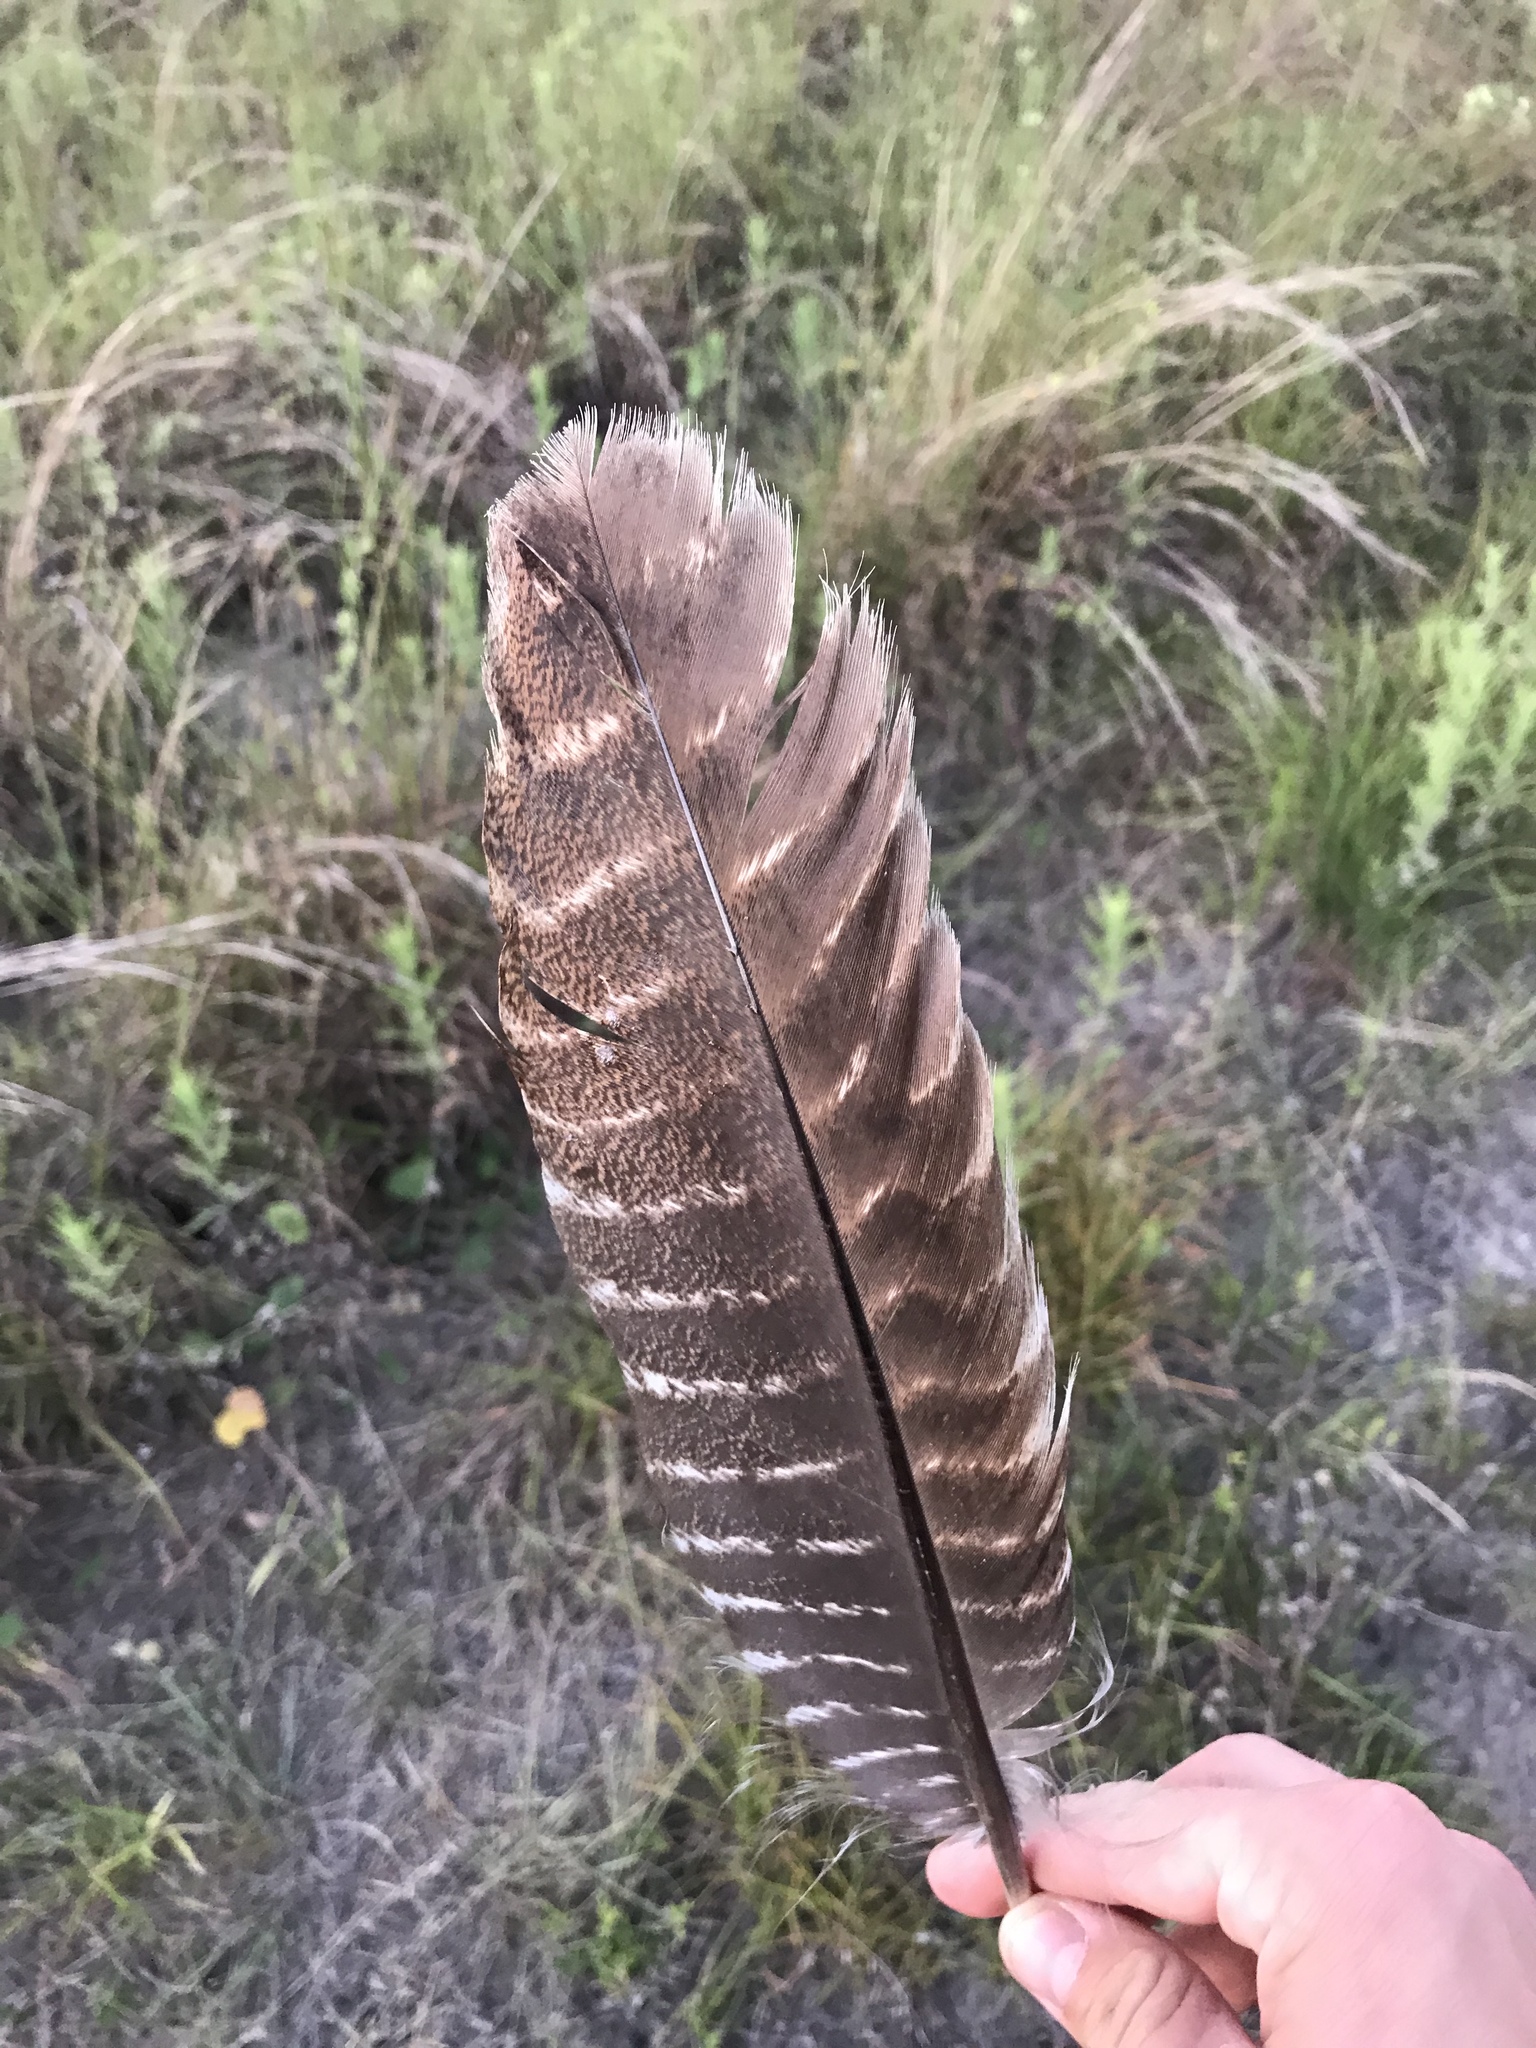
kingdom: Animalia
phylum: Chordata
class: Aves
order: Galliformes
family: Phasianidae
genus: Meleagris
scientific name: Meleagris gallopavo
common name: Wild turkey
